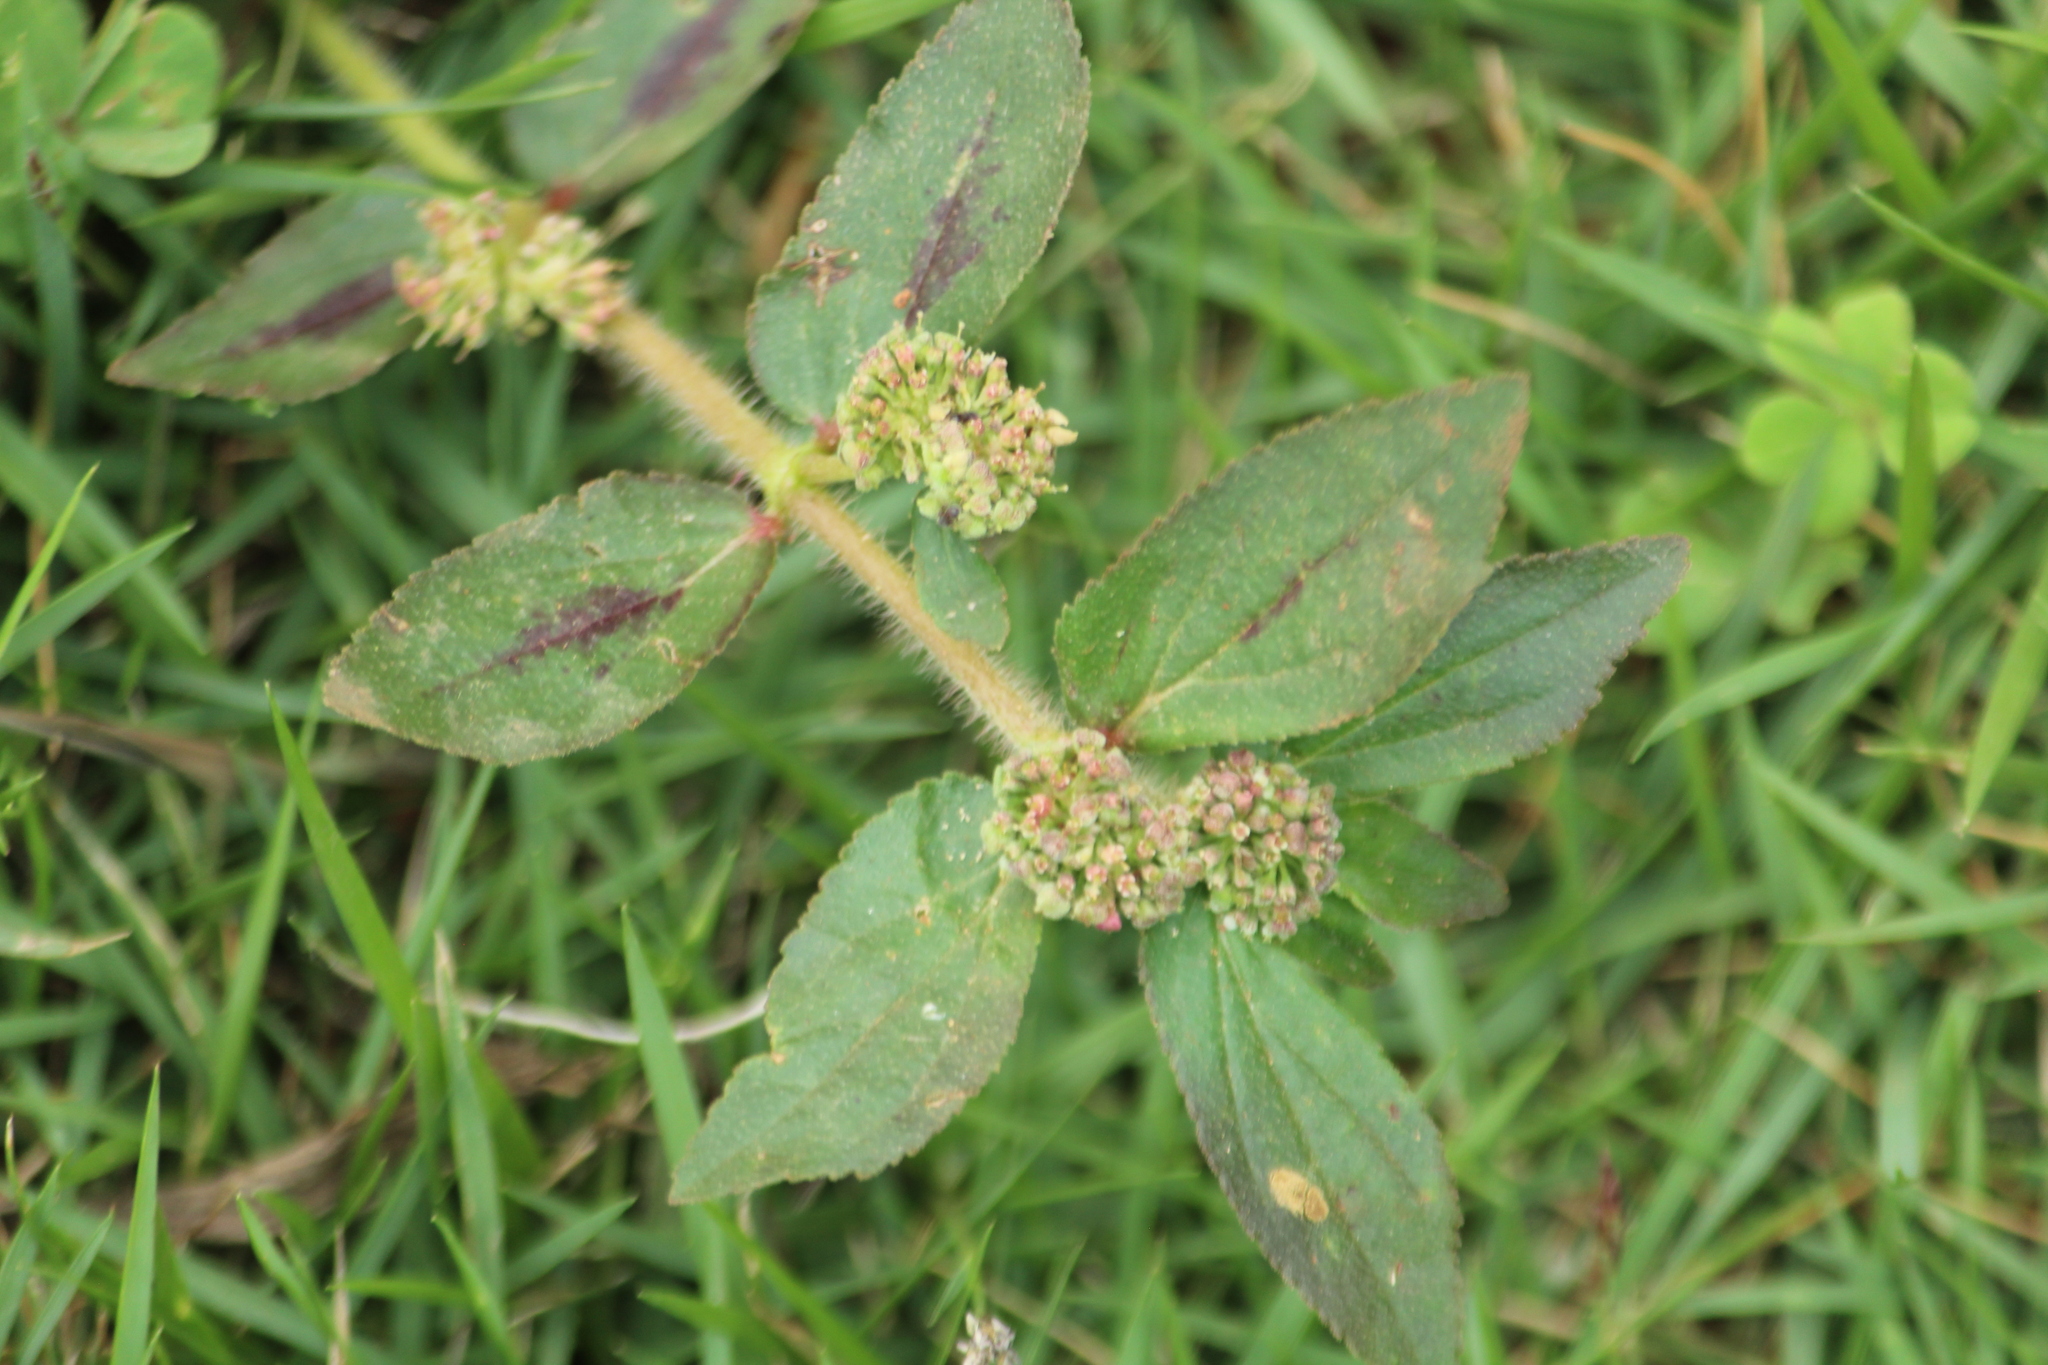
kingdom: Plantae
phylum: Tracheophyta
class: Magnoliopsida
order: Malpighiales
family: Euphorbiaceae
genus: Euphorbia
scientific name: Euphorbia hirta
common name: Pillpod sandmat
